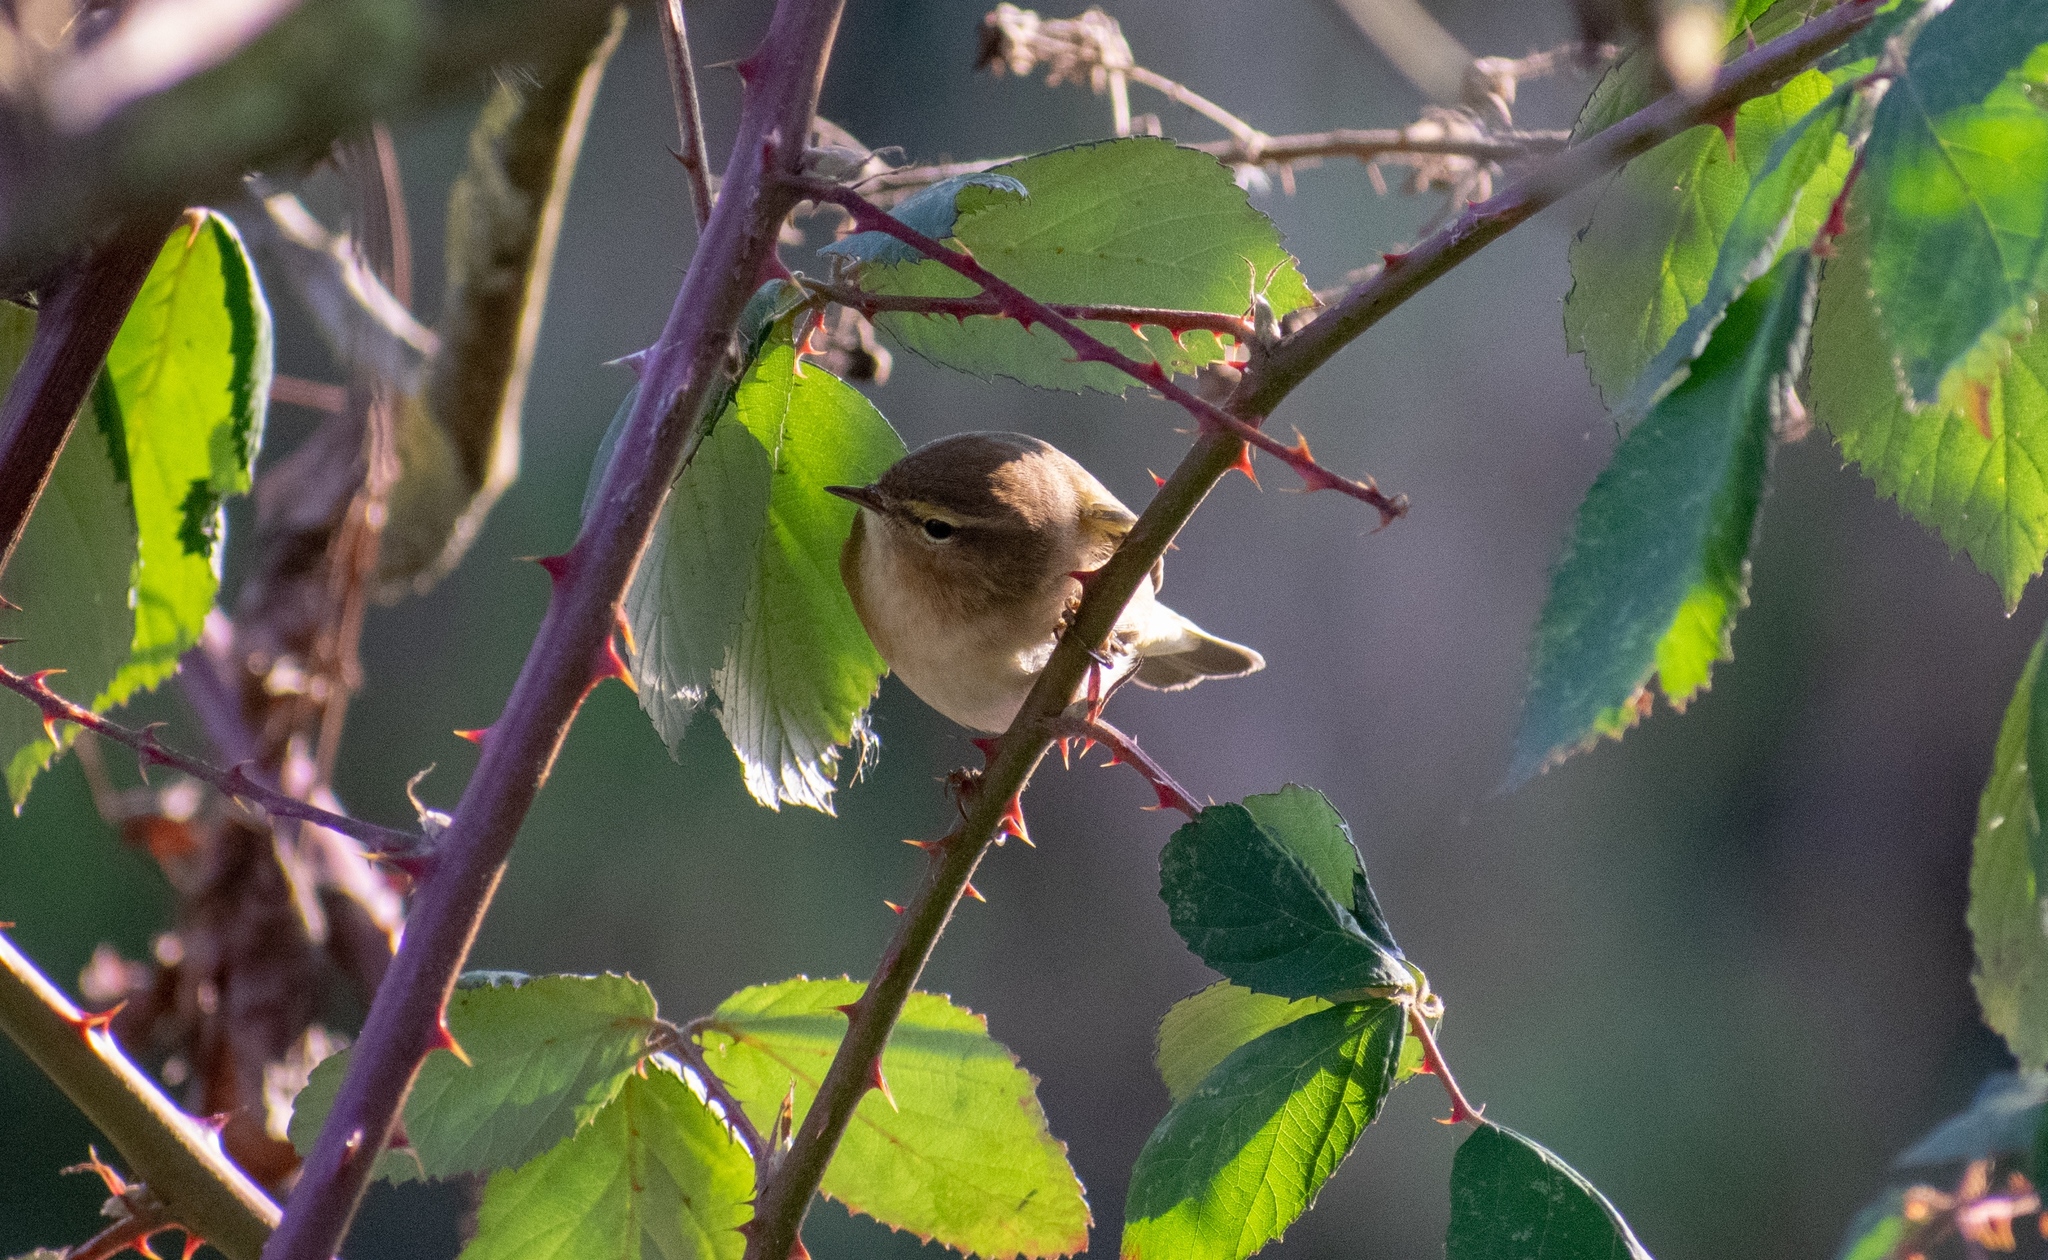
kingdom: Animalia
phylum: Chordata
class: Aves
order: Passeriformes
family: Phylloscopidae
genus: Phylloscopus
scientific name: Phylloscopus collybita
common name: Common chiffchaff
